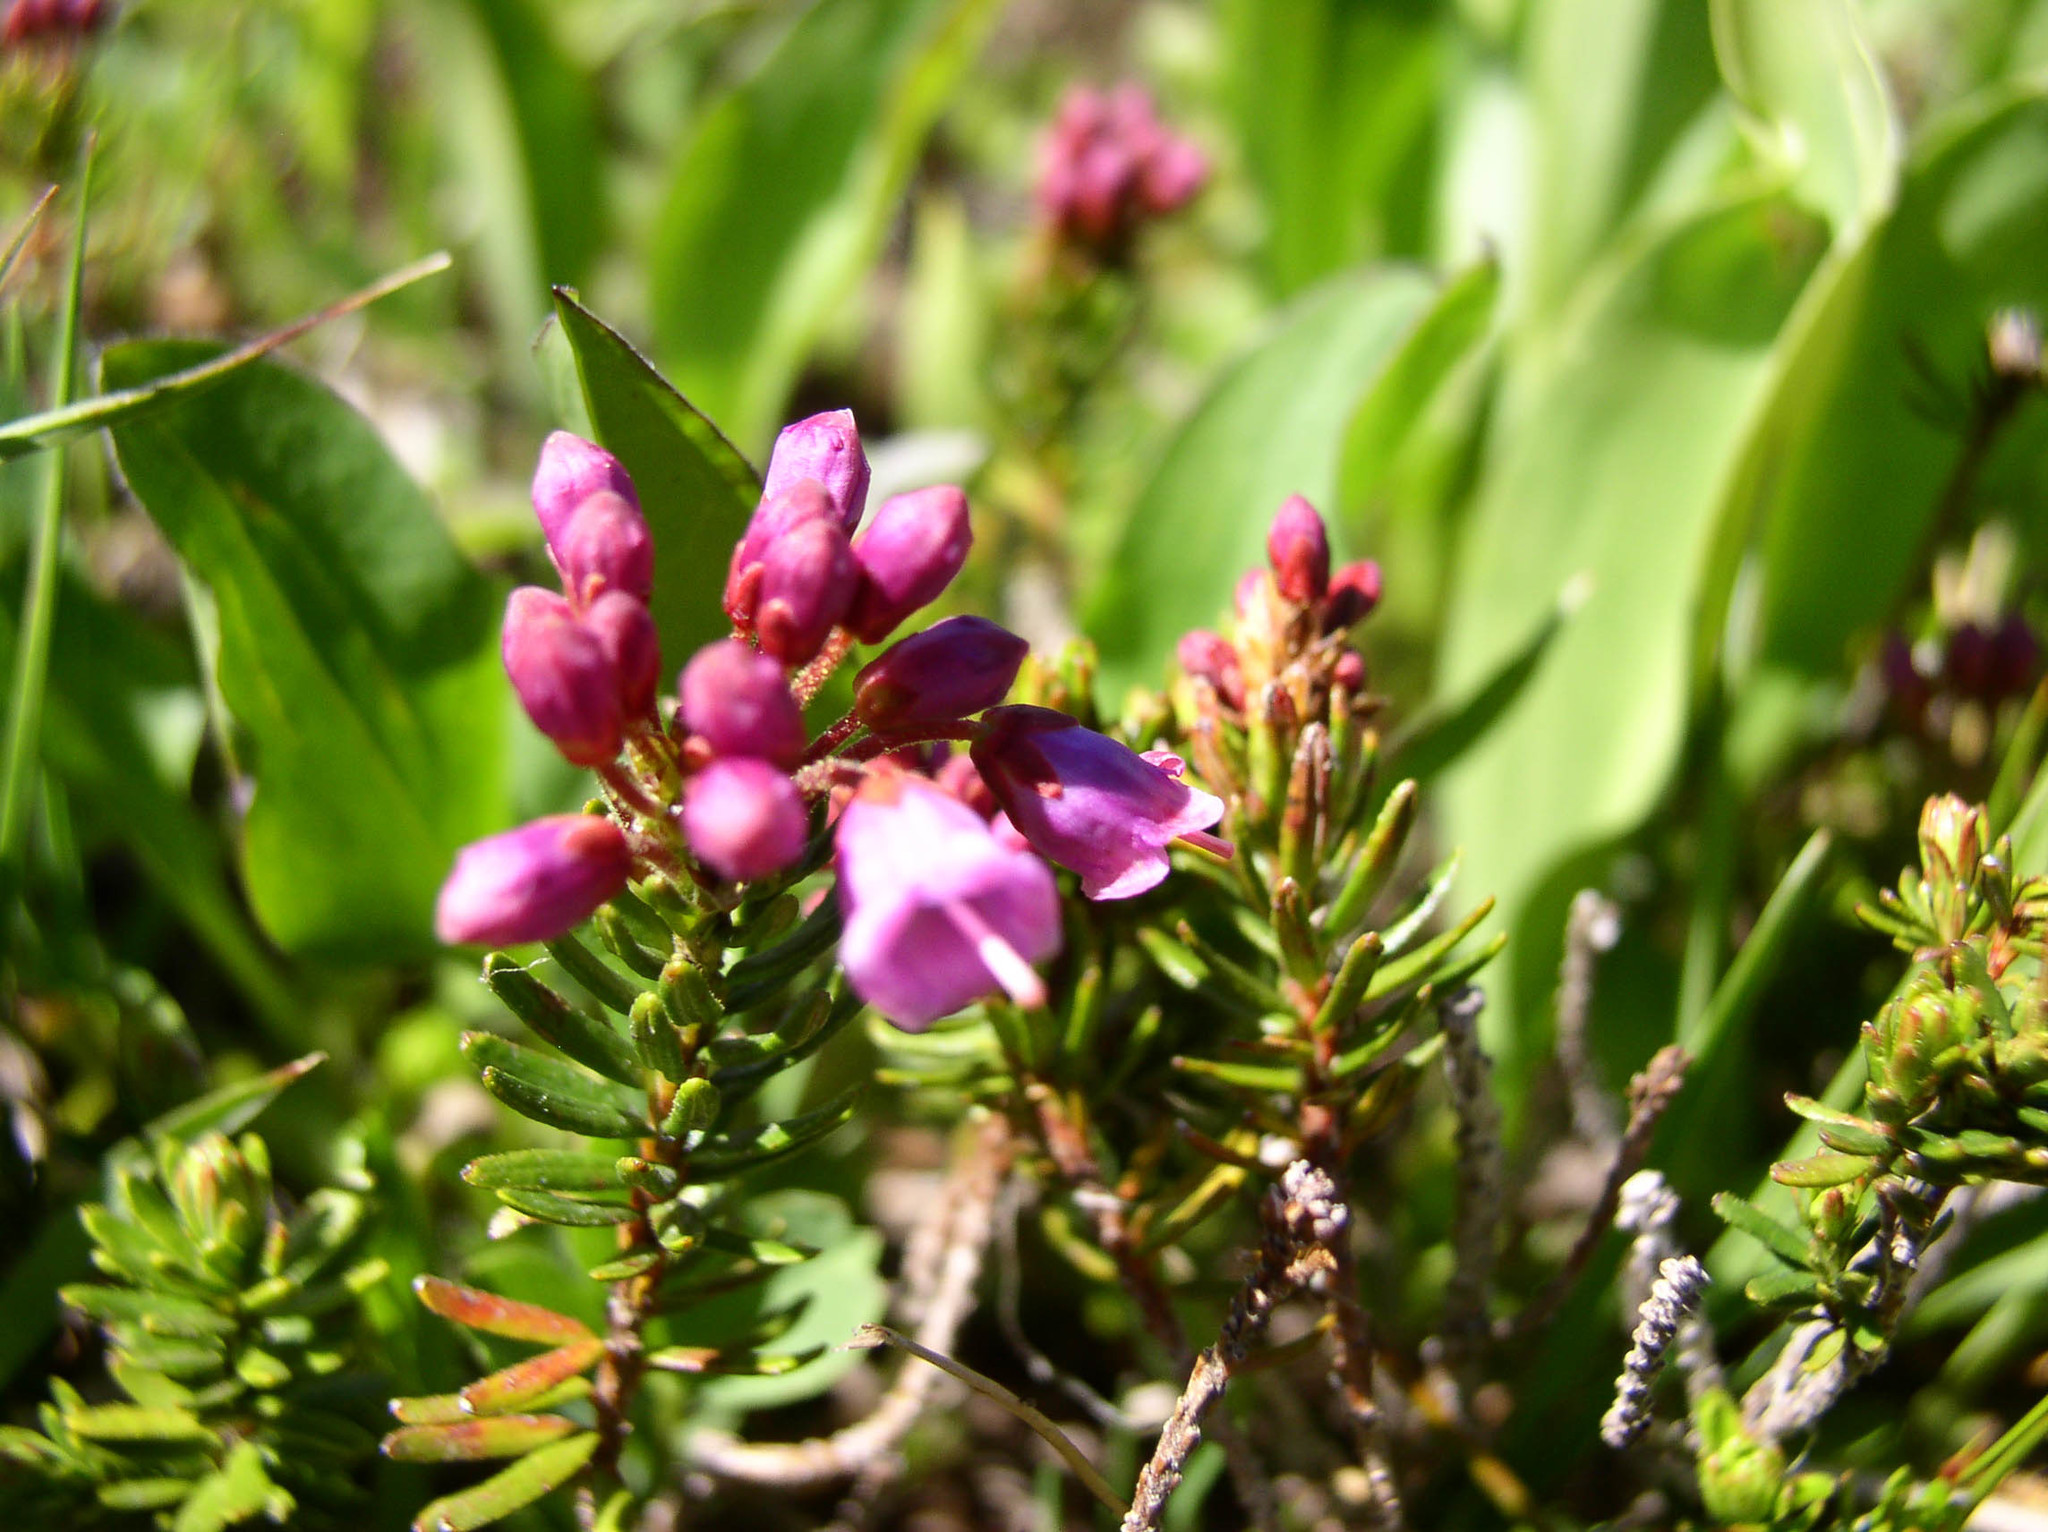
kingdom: Plantae
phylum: Tracheophyta
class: Magnoliopsida
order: Ericales
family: Ericaceae
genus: Phyllodoce
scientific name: Phyllodoce empetriformis
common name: Pink mountain heather
